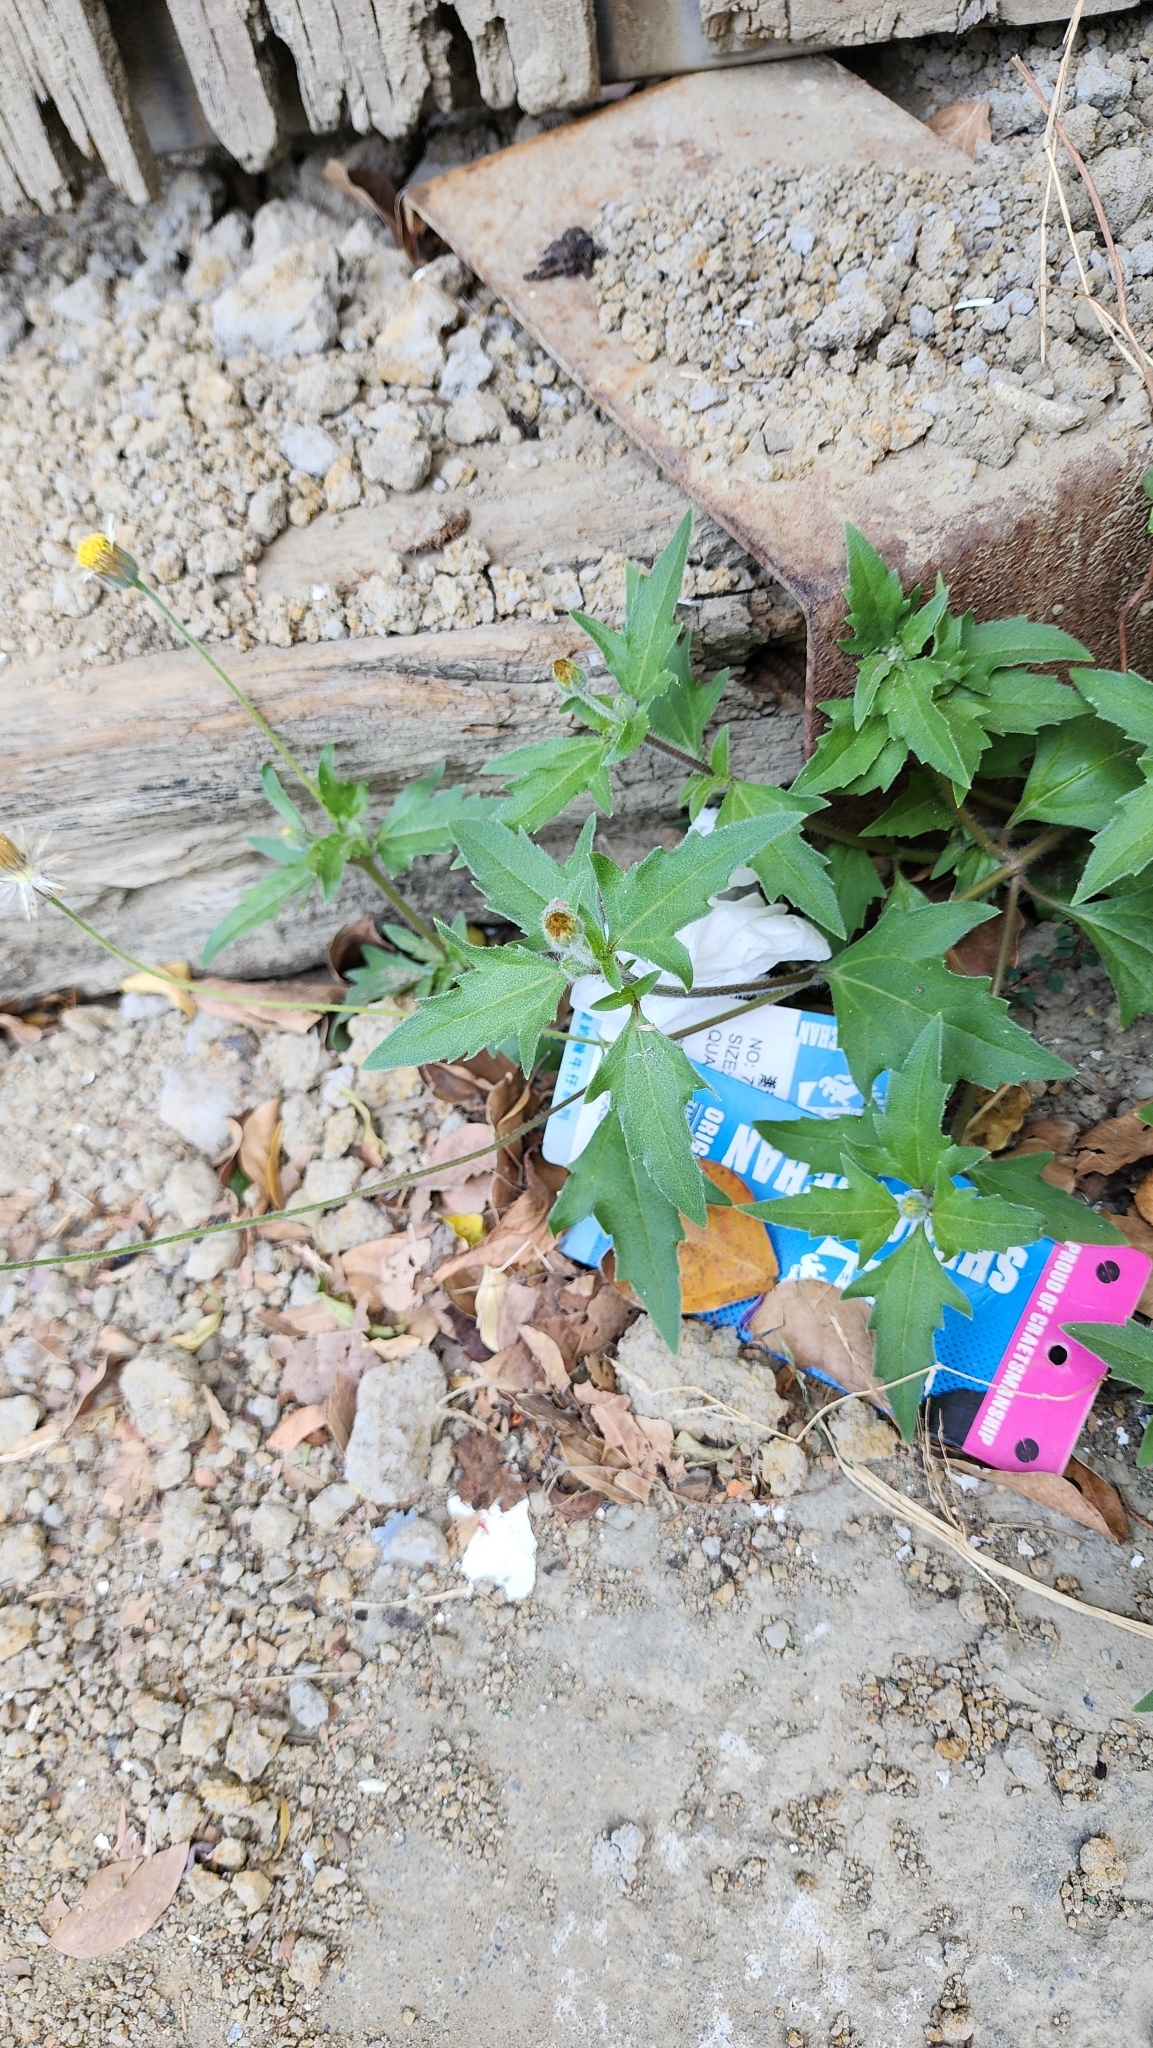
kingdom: Plantae
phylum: Tracheophyta
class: Magnoliopsida
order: Asterales
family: Asteraceae
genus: Tridax
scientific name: Tridax procumbens
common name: Coatbuttons
